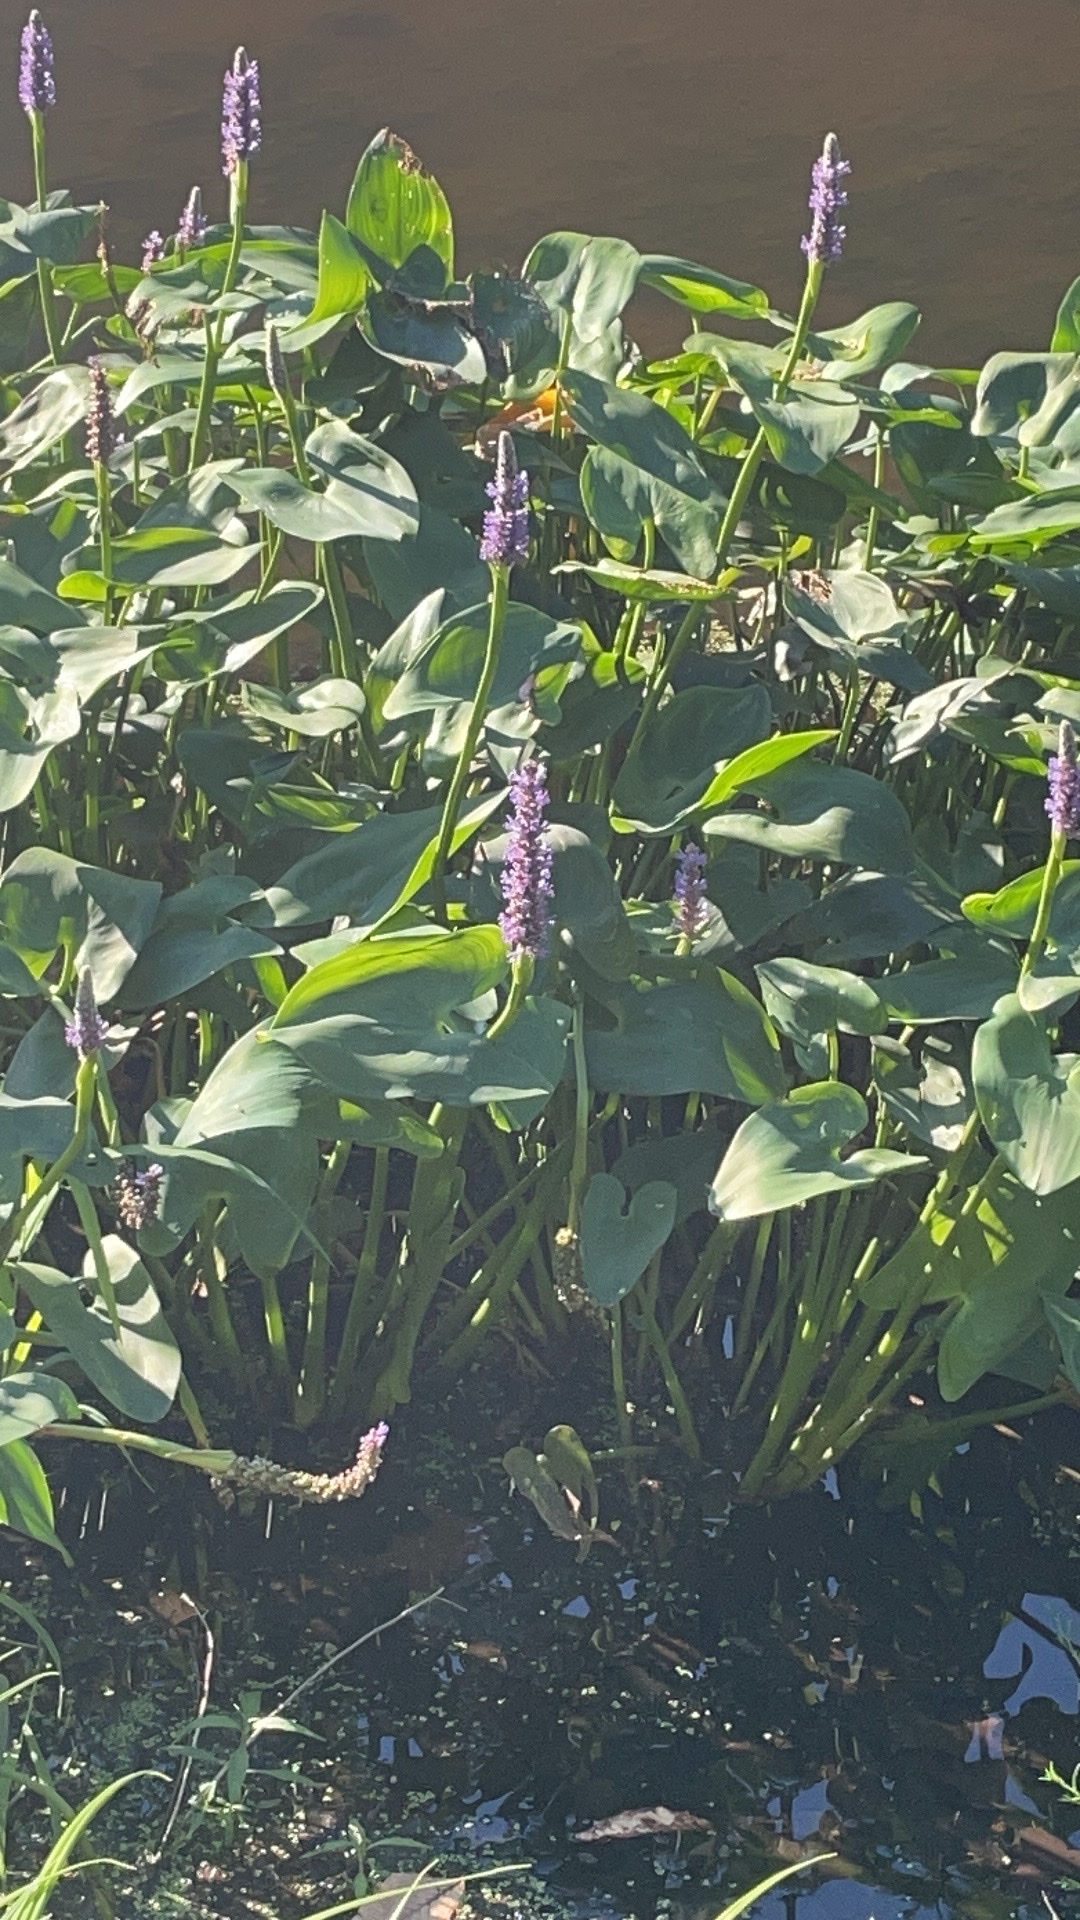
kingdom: Plantae
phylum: Tracheophyta
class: Liliopsida
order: Commelinales
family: Pontederiaceae
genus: Pontederia
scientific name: Pontederia cordata
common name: Pickerelweed
